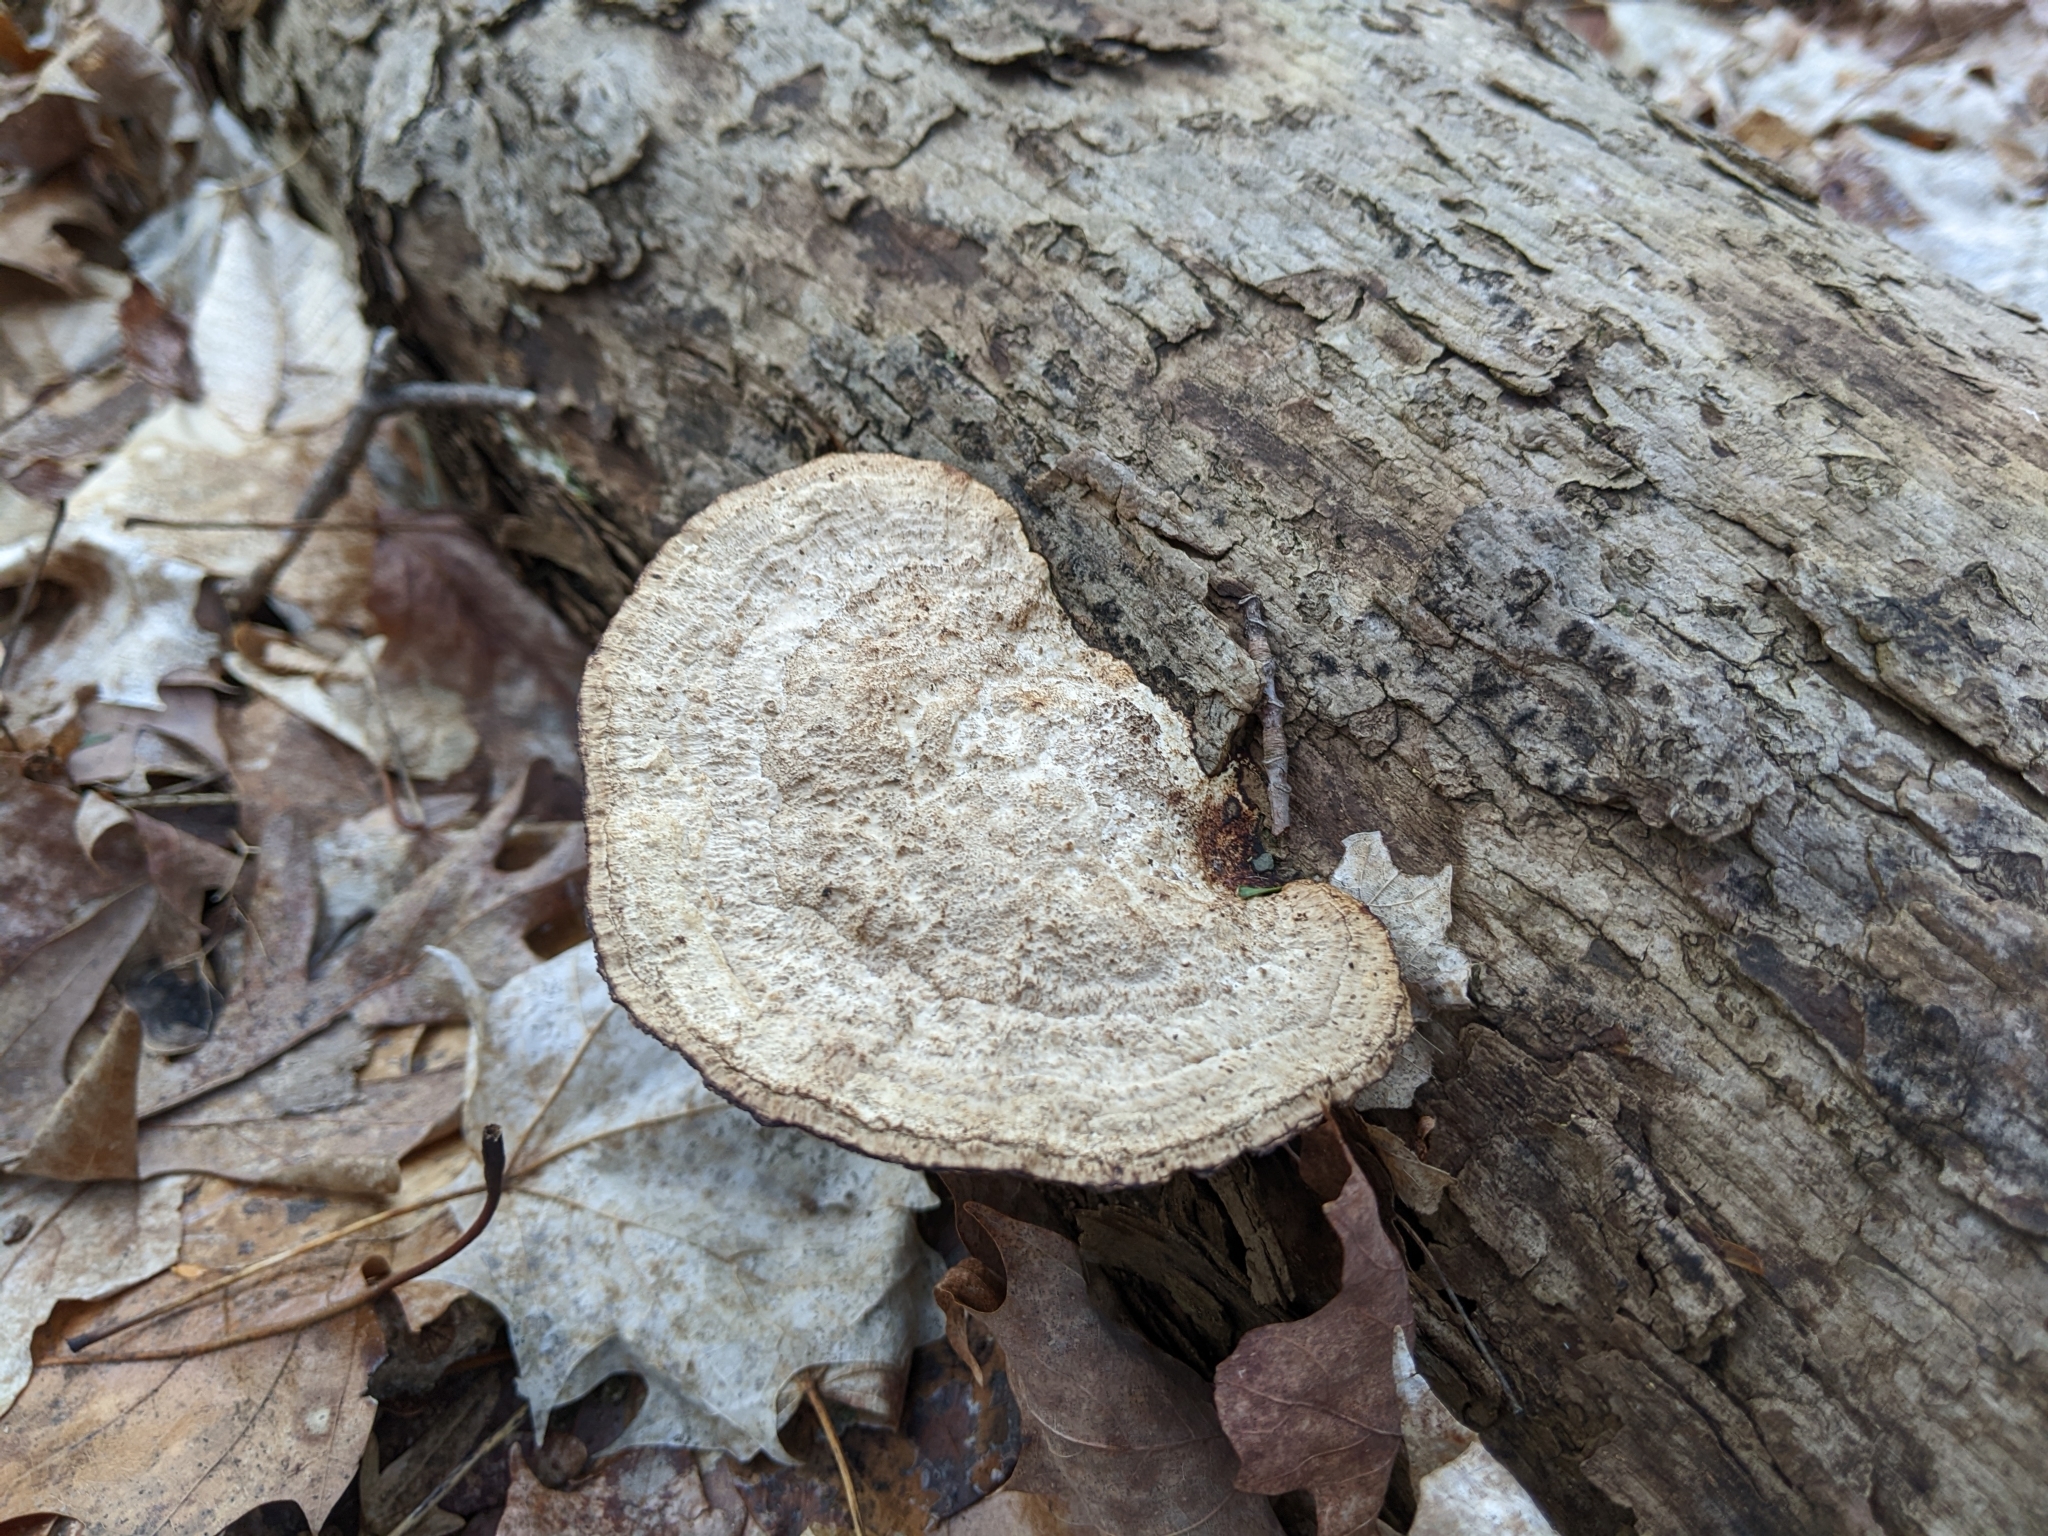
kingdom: Fungi
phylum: Basidiomycota
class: Agaricomycetes
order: Polyporales
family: Polyporaceae
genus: Daedaleopsis
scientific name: Daedaleopsis confragosa
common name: Blushing bracket
